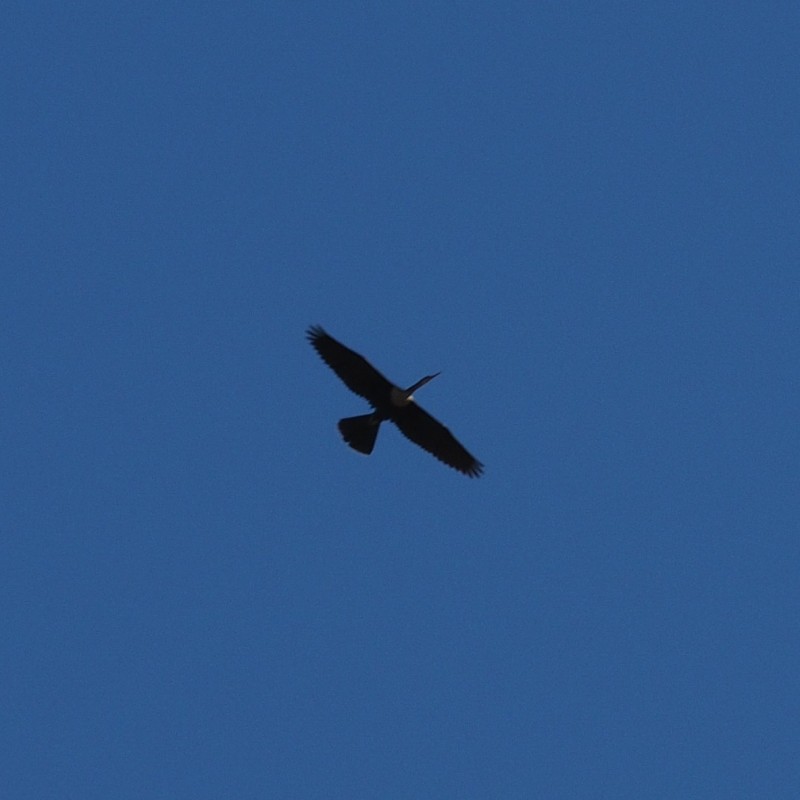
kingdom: Animalia
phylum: Chordata
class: Aves
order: Suliformes
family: Anhingidae
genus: Anhinga
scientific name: Anhinga anhinga
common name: Anhinga
